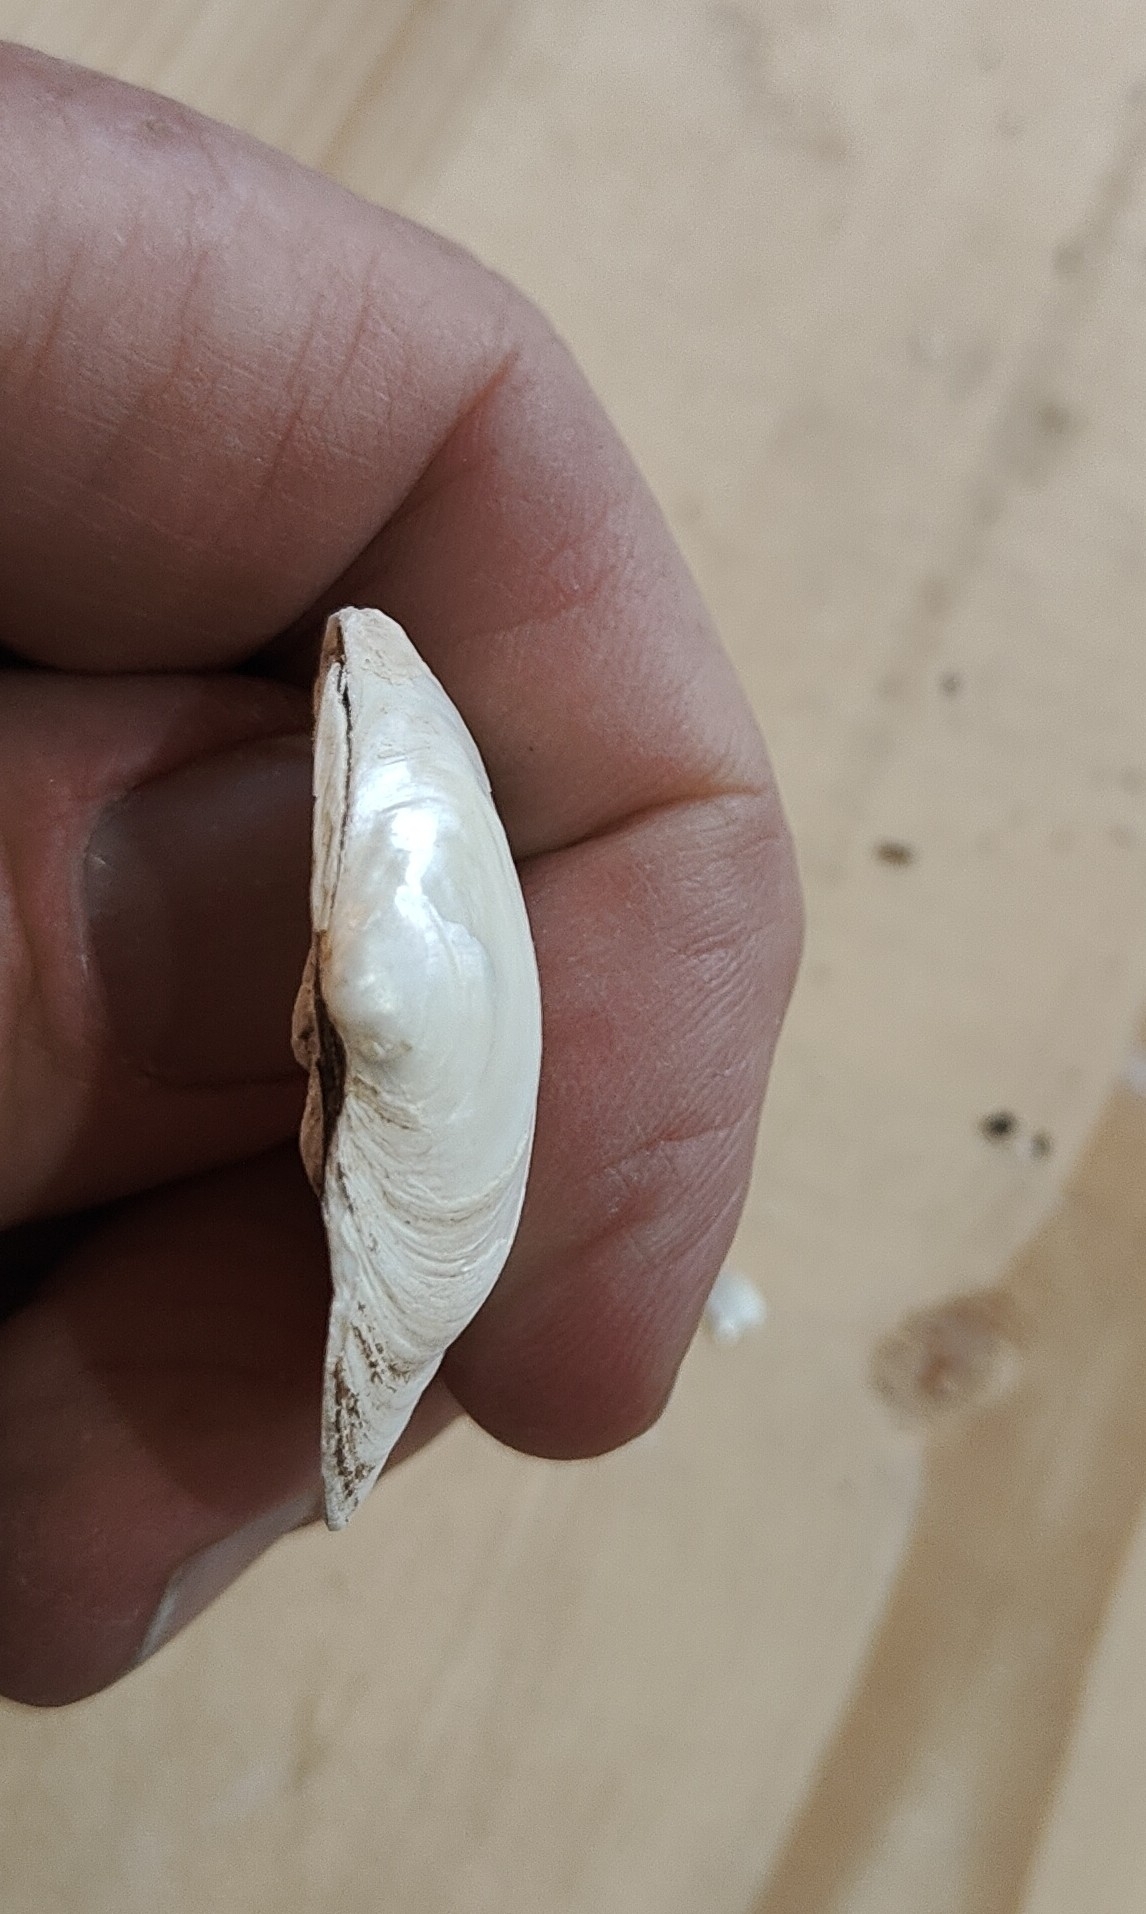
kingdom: Animalia
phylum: Mollusca
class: Bivalvia
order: Unionida
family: Unionidae
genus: Fusconaia
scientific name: Fusconaia flava
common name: Wabash pigtoe
